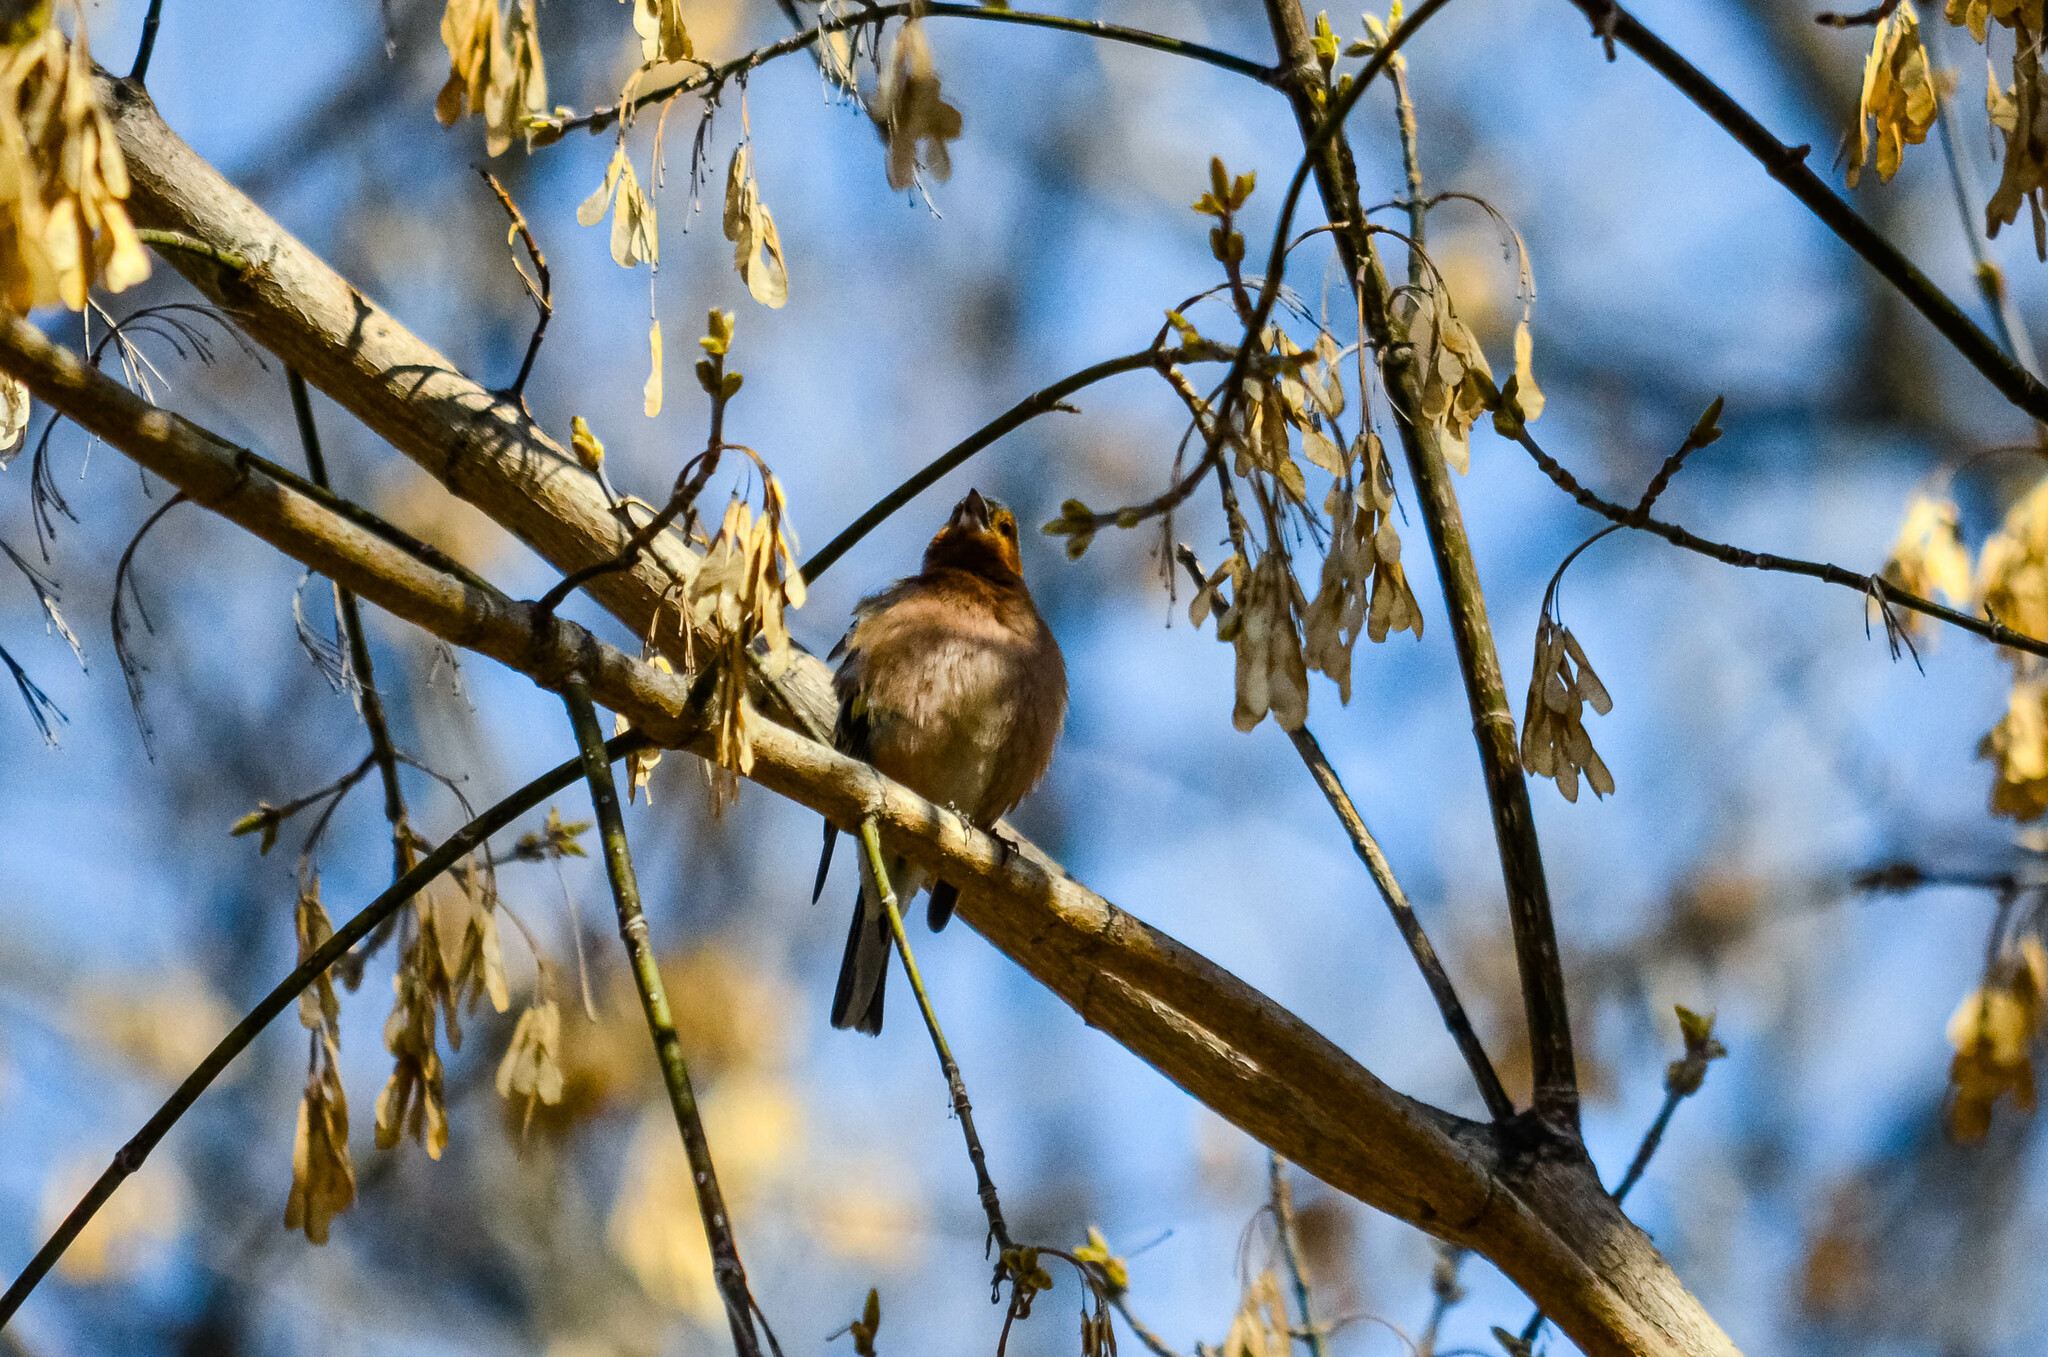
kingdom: Animalia
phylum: Chordata
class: Aves
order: Passeriformes
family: Fringillidae
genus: Fringilla
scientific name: Fringilla coelebs
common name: Common chaffinch
